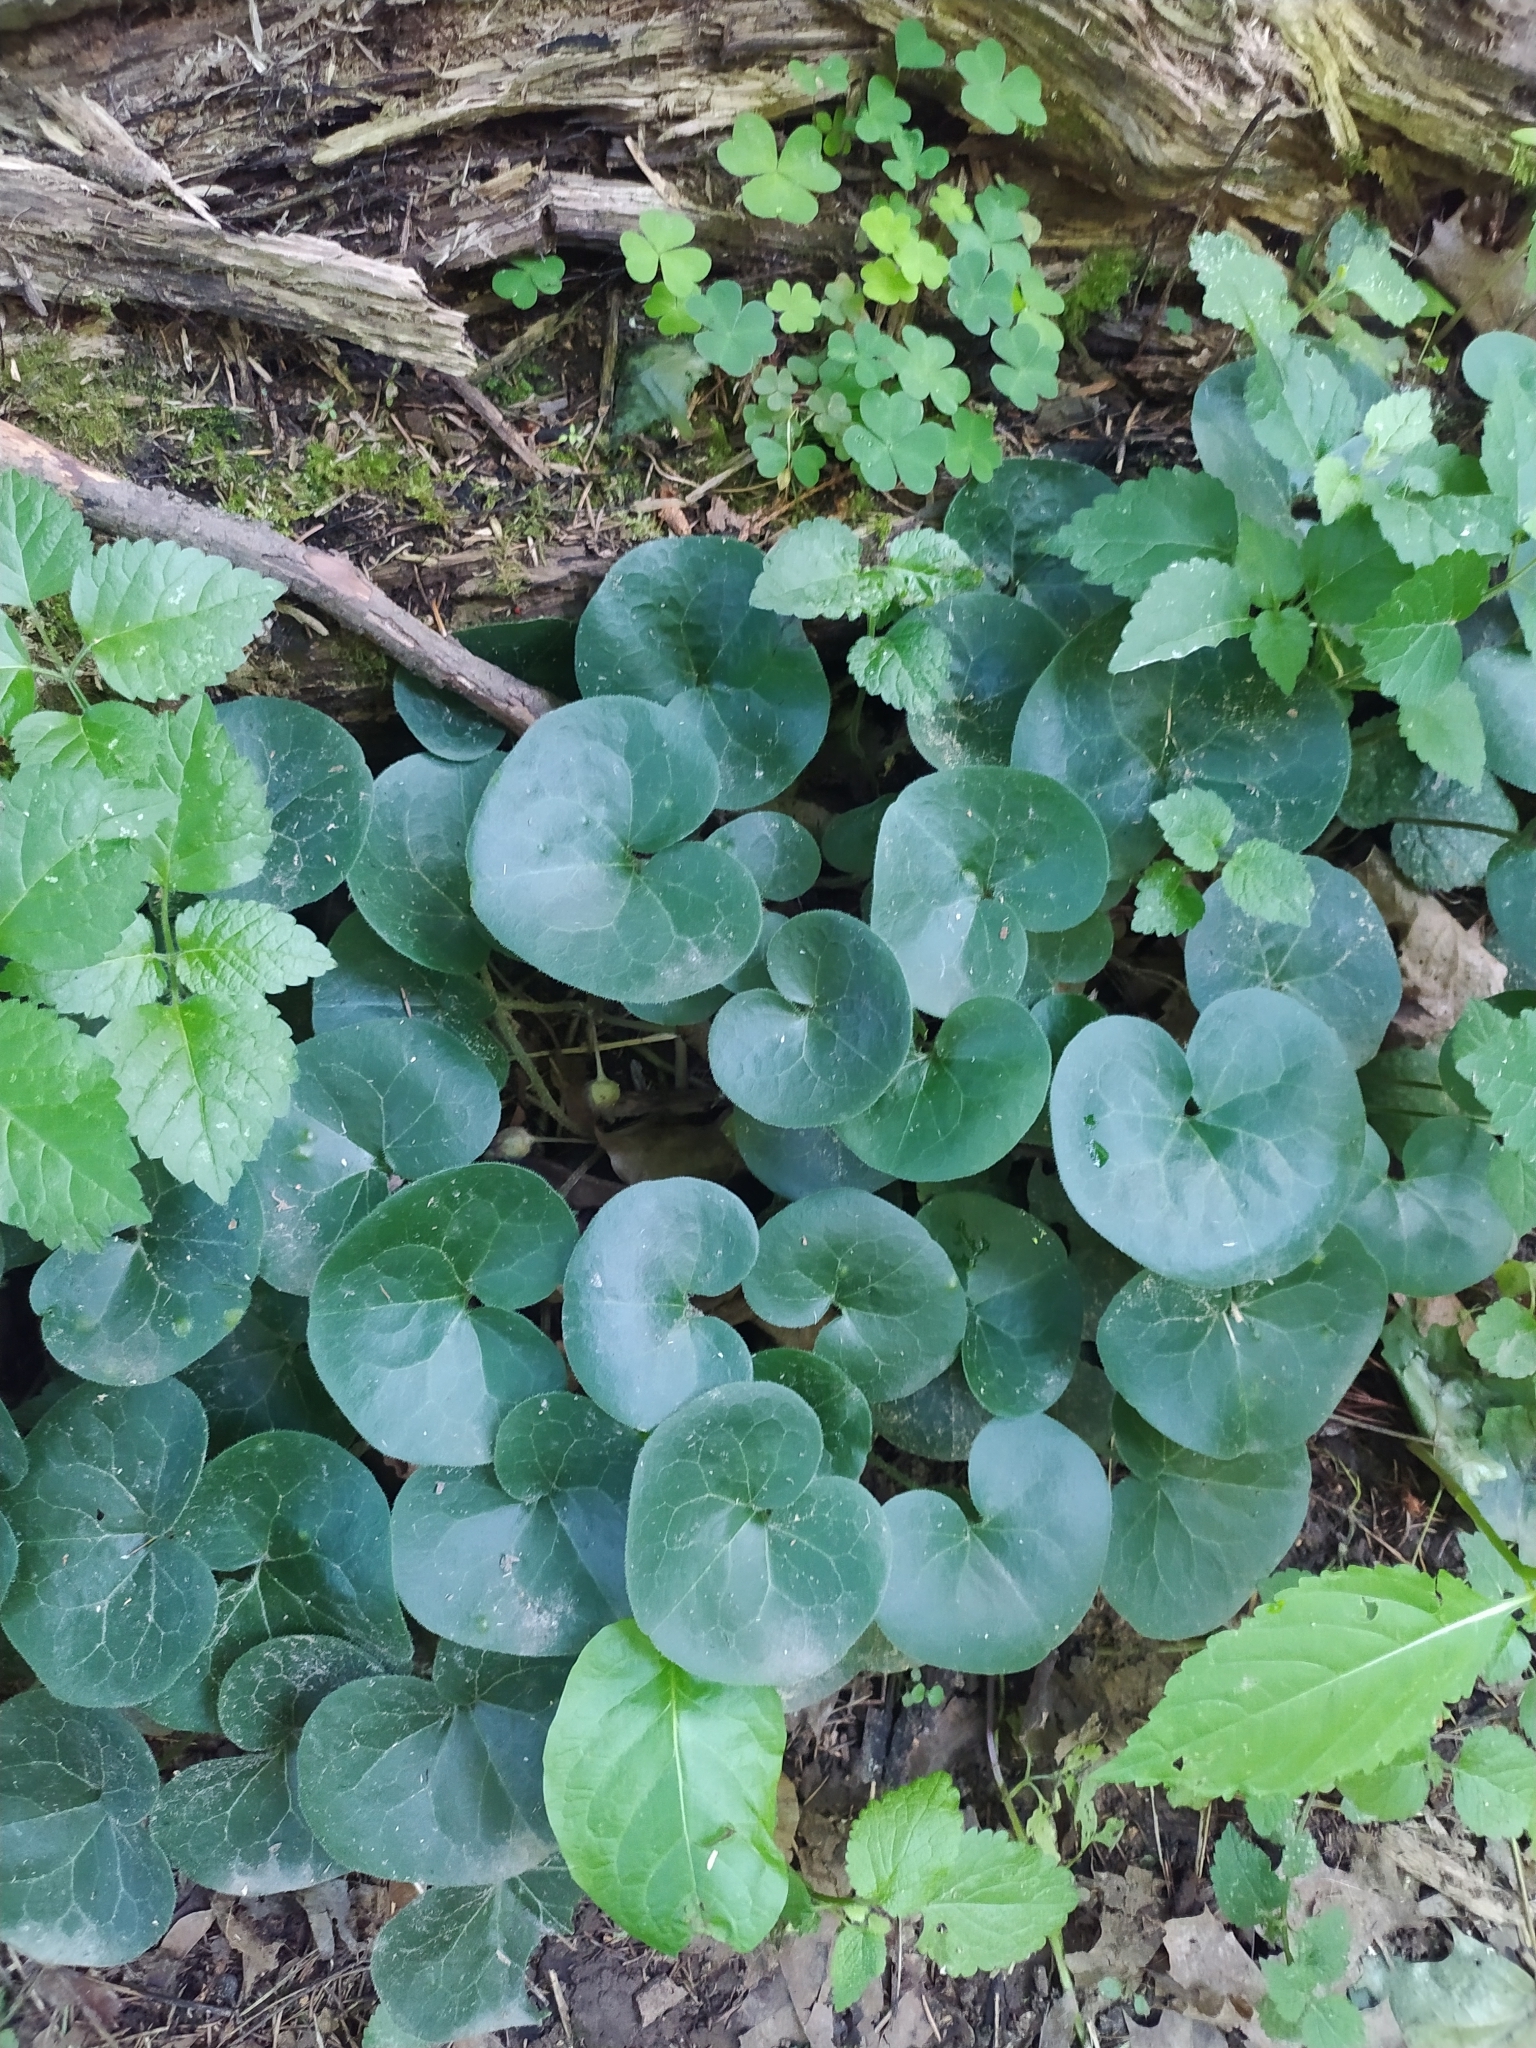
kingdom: Plantae
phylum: Tracheophyta
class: Magnoliopsida
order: Piperales
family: Aristolochiaceae
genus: Asarum
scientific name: Asarum europaeum
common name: Asarabacca
